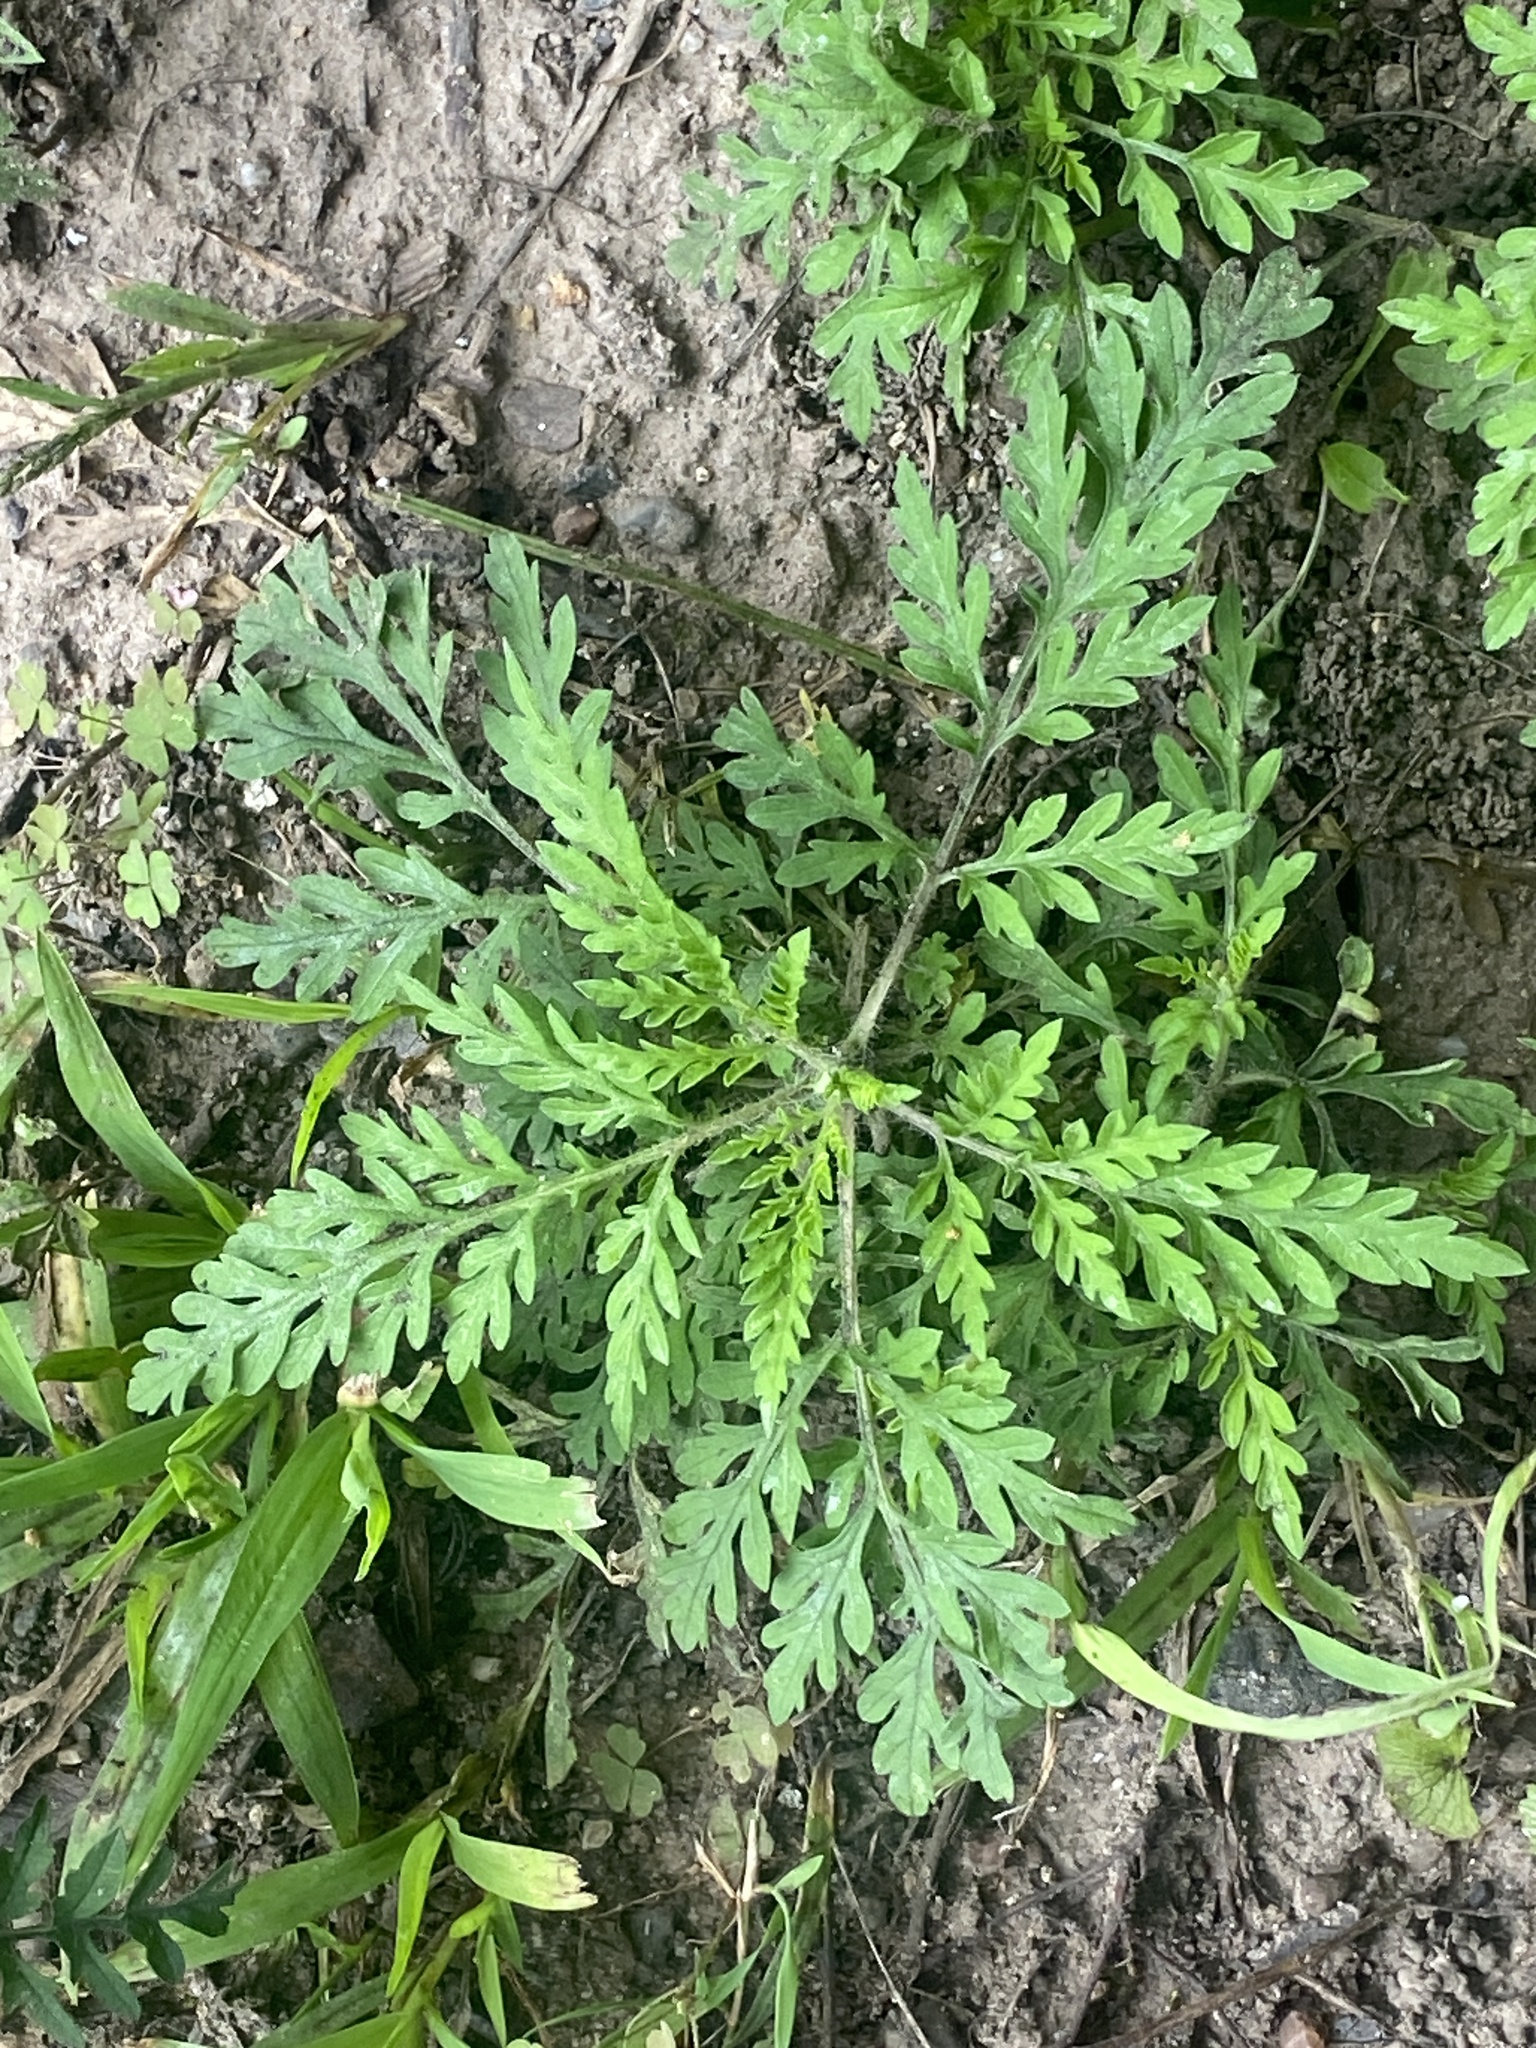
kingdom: Plantae
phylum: Tracheophyta
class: Magnoliopsida
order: Asterales
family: Asteraceae
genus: Ambrosia
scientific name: Ambrosia artemisiifolia
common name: Annual ragweed
